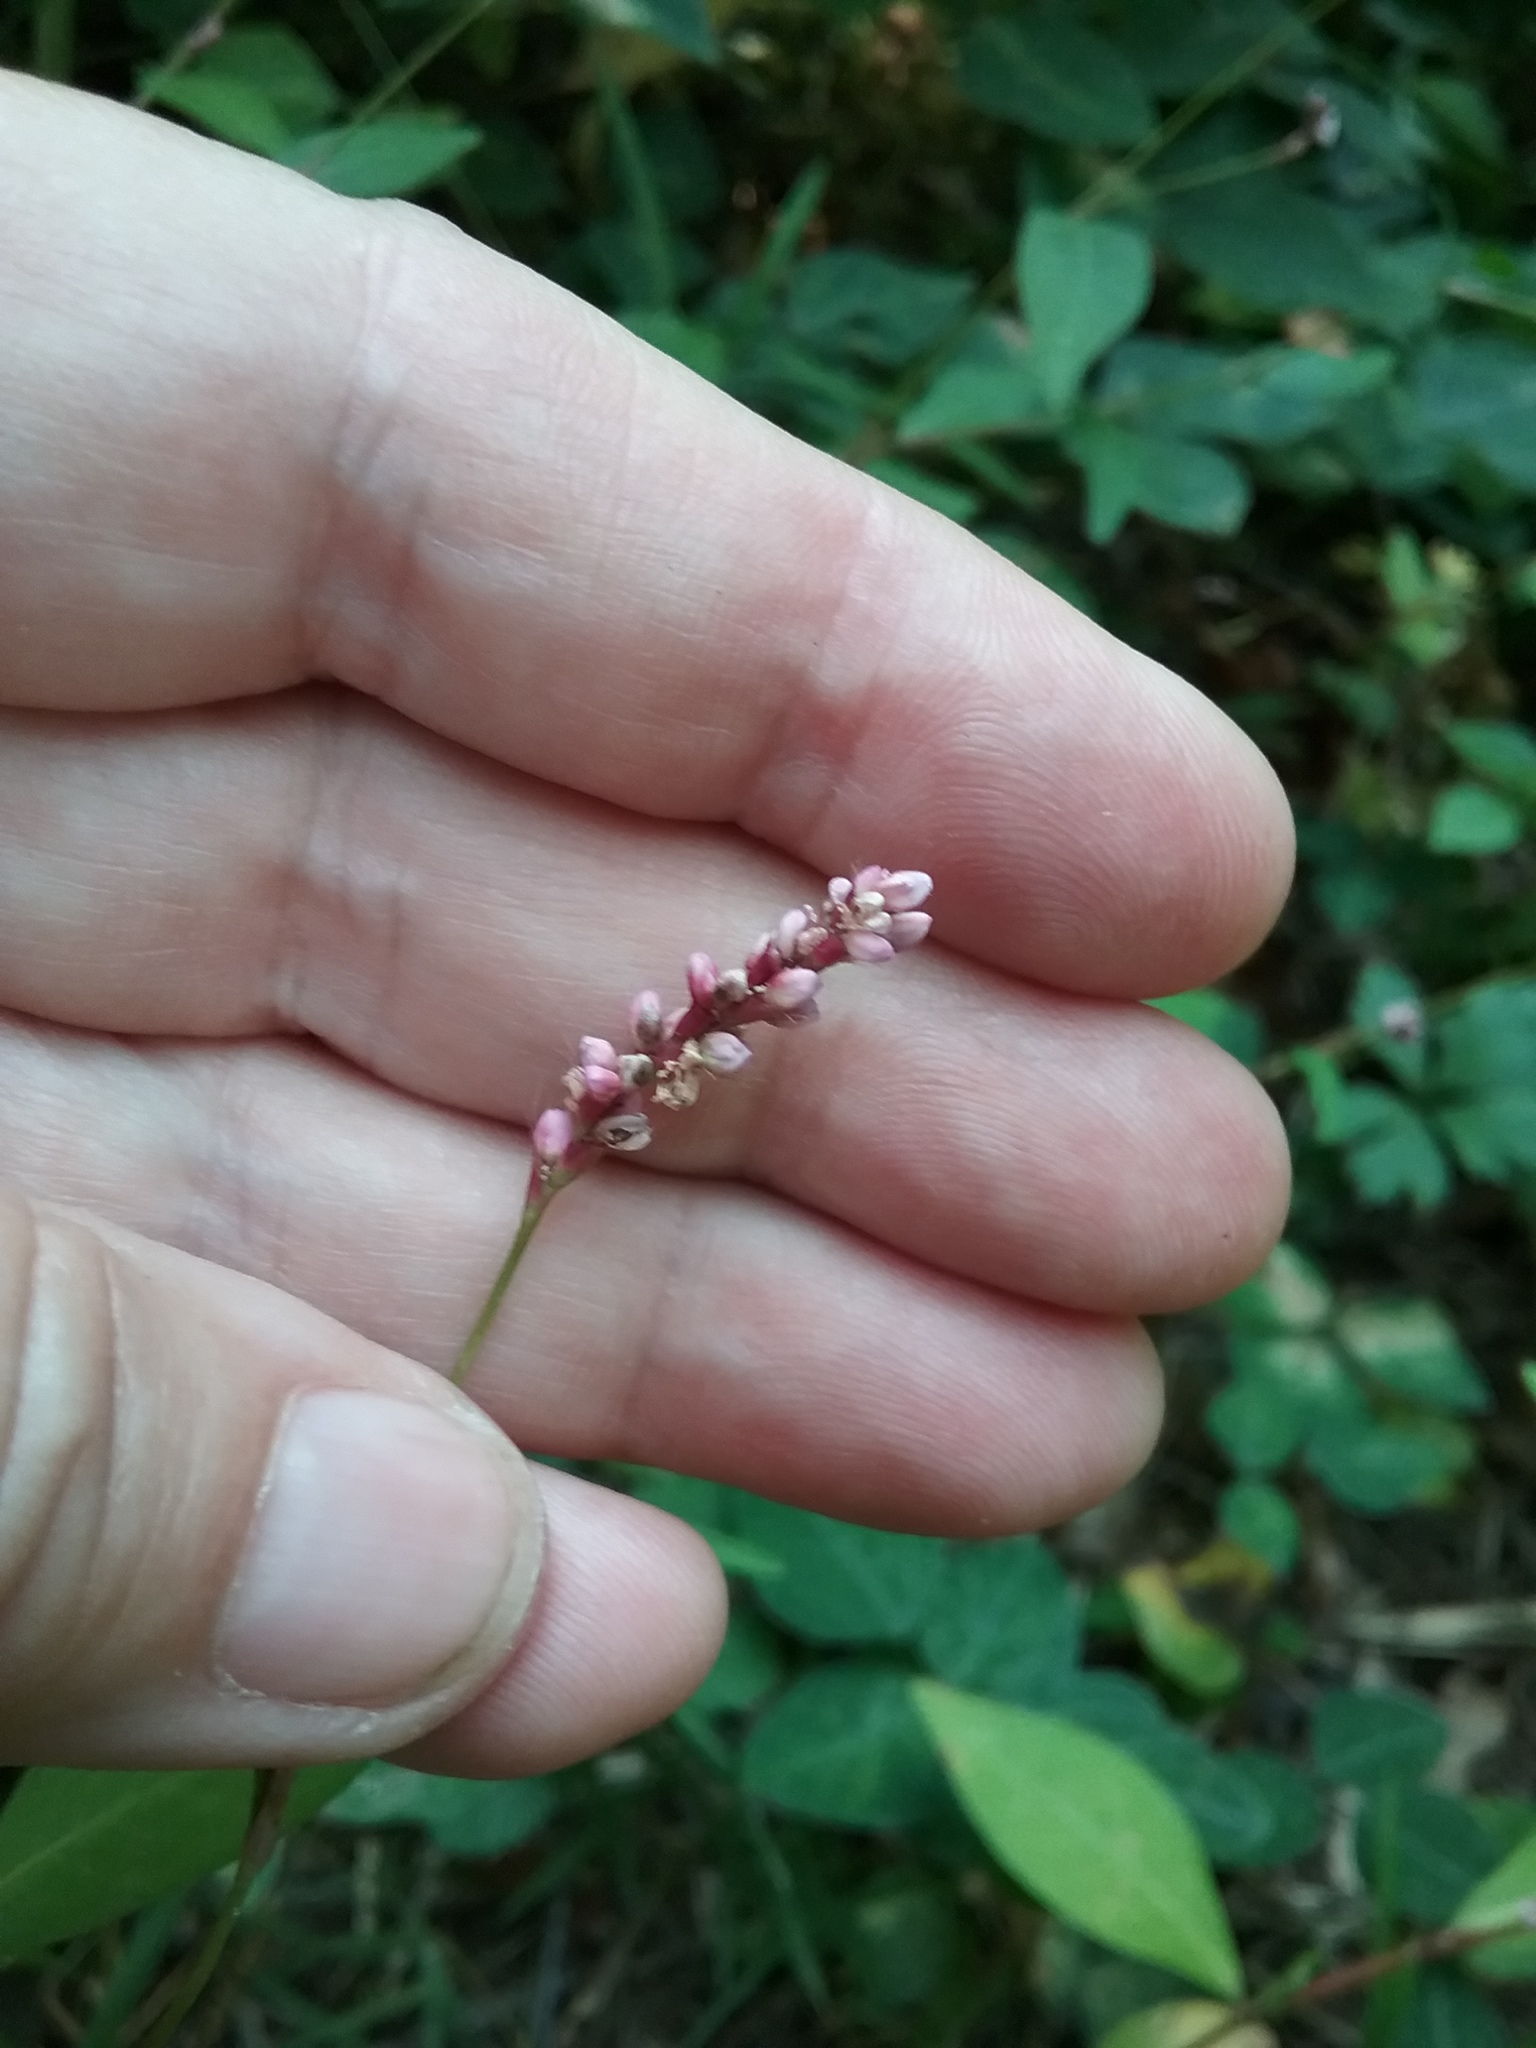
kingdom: Plantae
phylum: Tracheophyta
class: Magnoliopsida
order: Caryophyllales
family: Polygonaceae
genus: Persicaria
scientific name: Persicaria longiseta
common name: Bristly lady's-thumb
